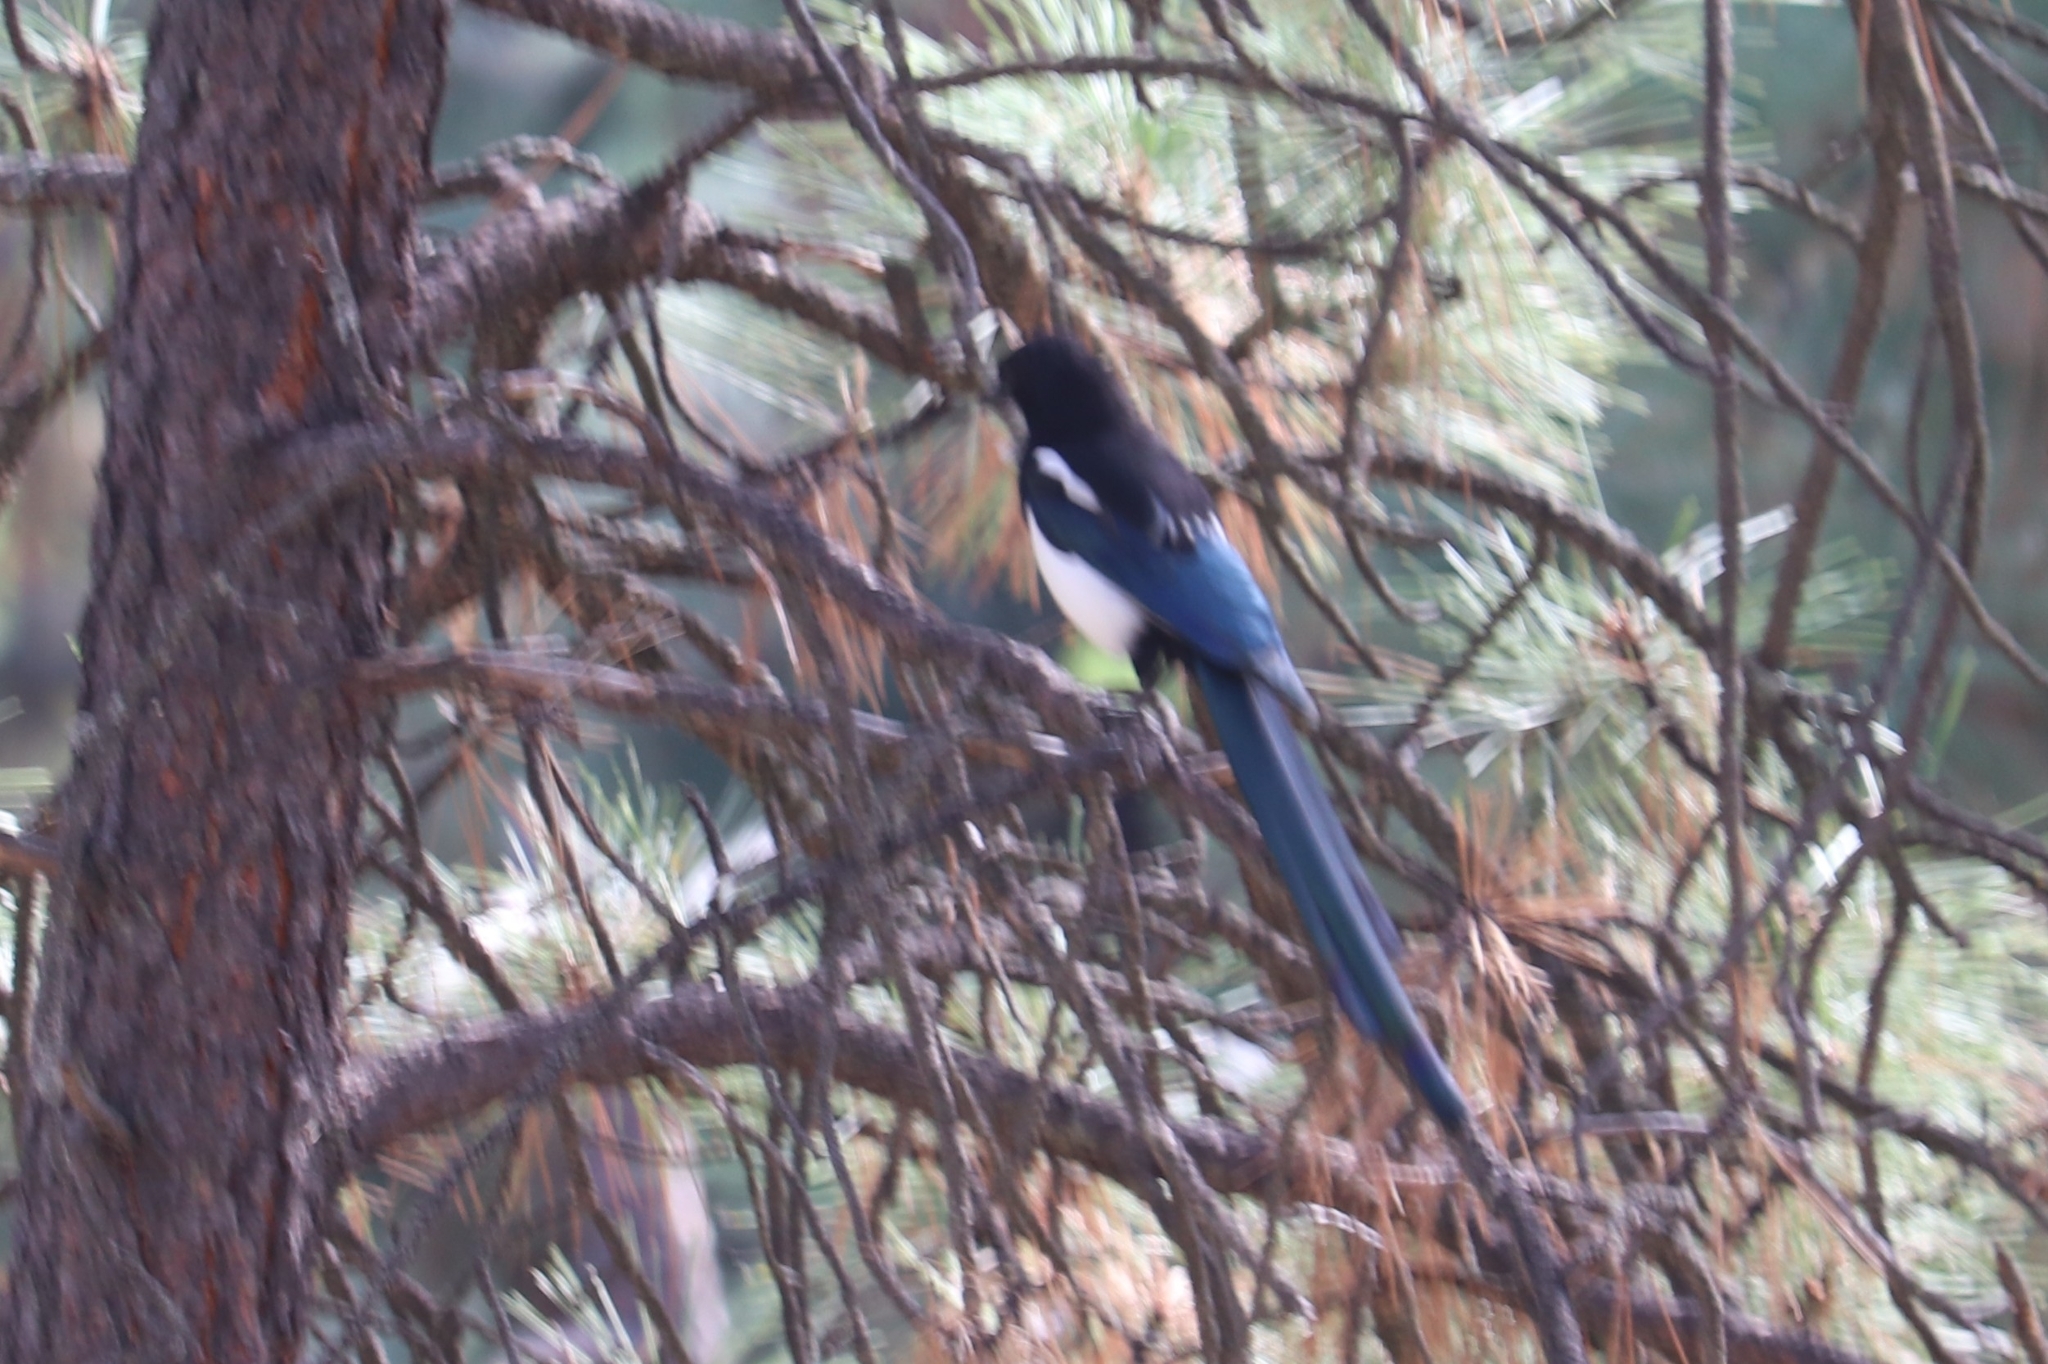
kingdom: Animalia
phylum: Chordata
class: Aves
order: Passeriformes
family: Corvidae
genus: Pica
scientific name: Pica hudsonia
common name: Black-billed magpie
